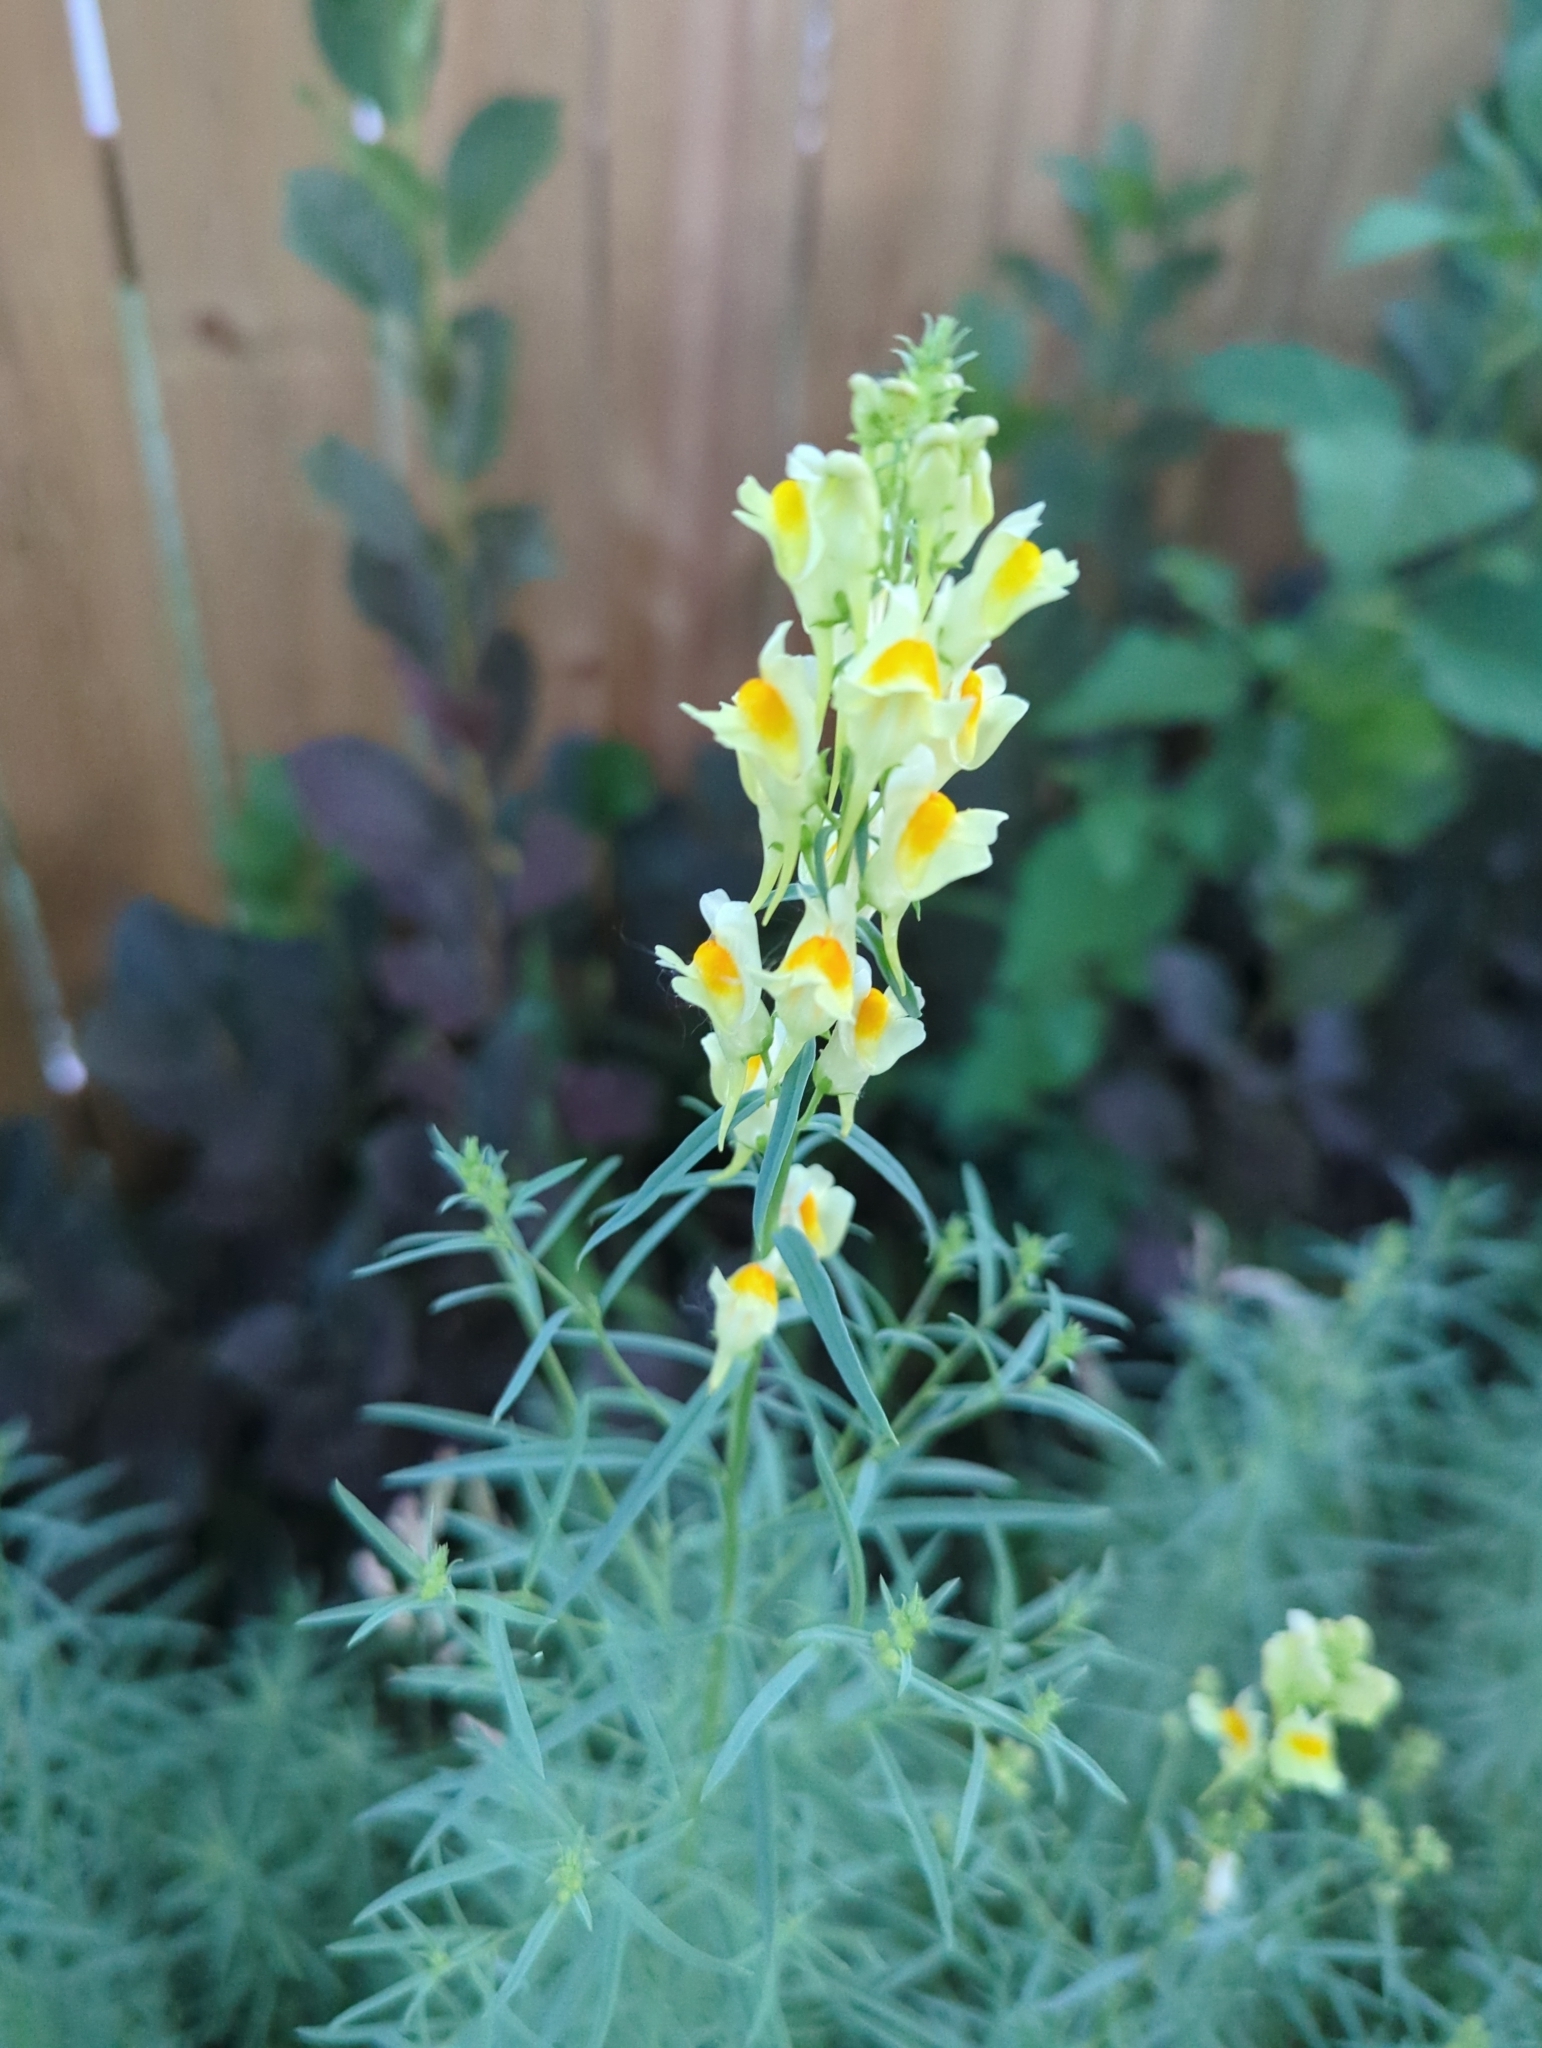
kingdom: Plantae
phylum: Tracheophyta
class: Magnoliopsida
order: Lamiales
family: Plantaginaceae
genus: Linaria
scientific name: Linaria vulgaris
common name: Butter and eggs
